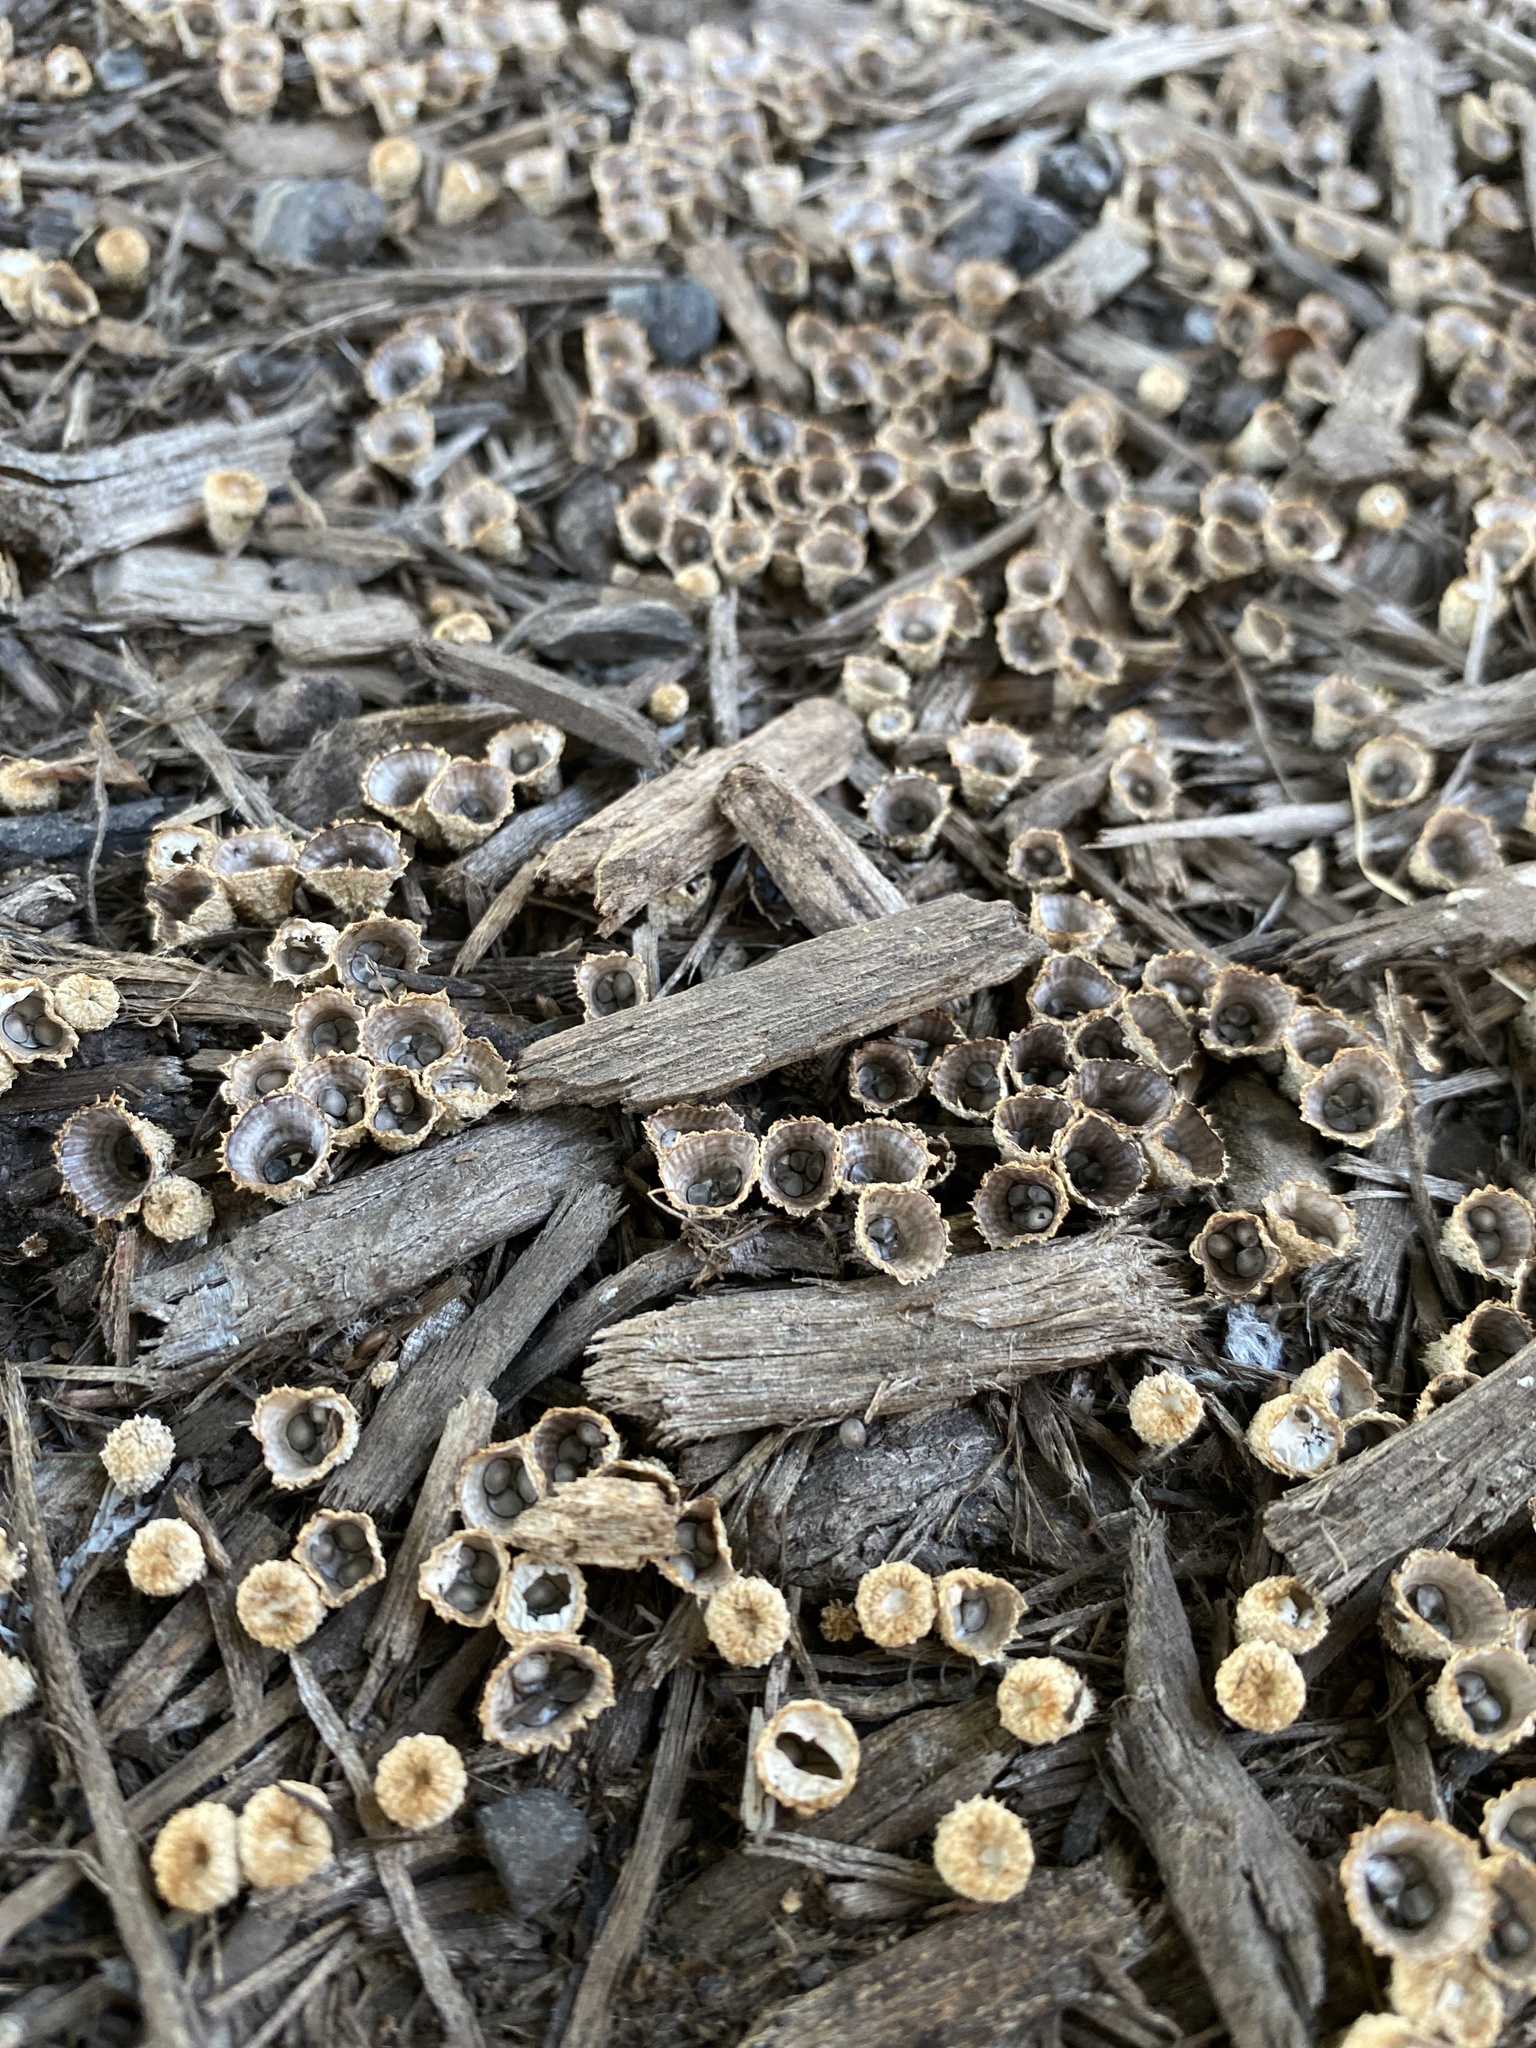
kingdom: Fungi
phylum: Basidiomycota
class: Agaricomycetes
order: Agaricales
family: Agaricaceae
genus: Cyathus
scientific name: Cyathus striatus
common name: Fluted bird's nest
